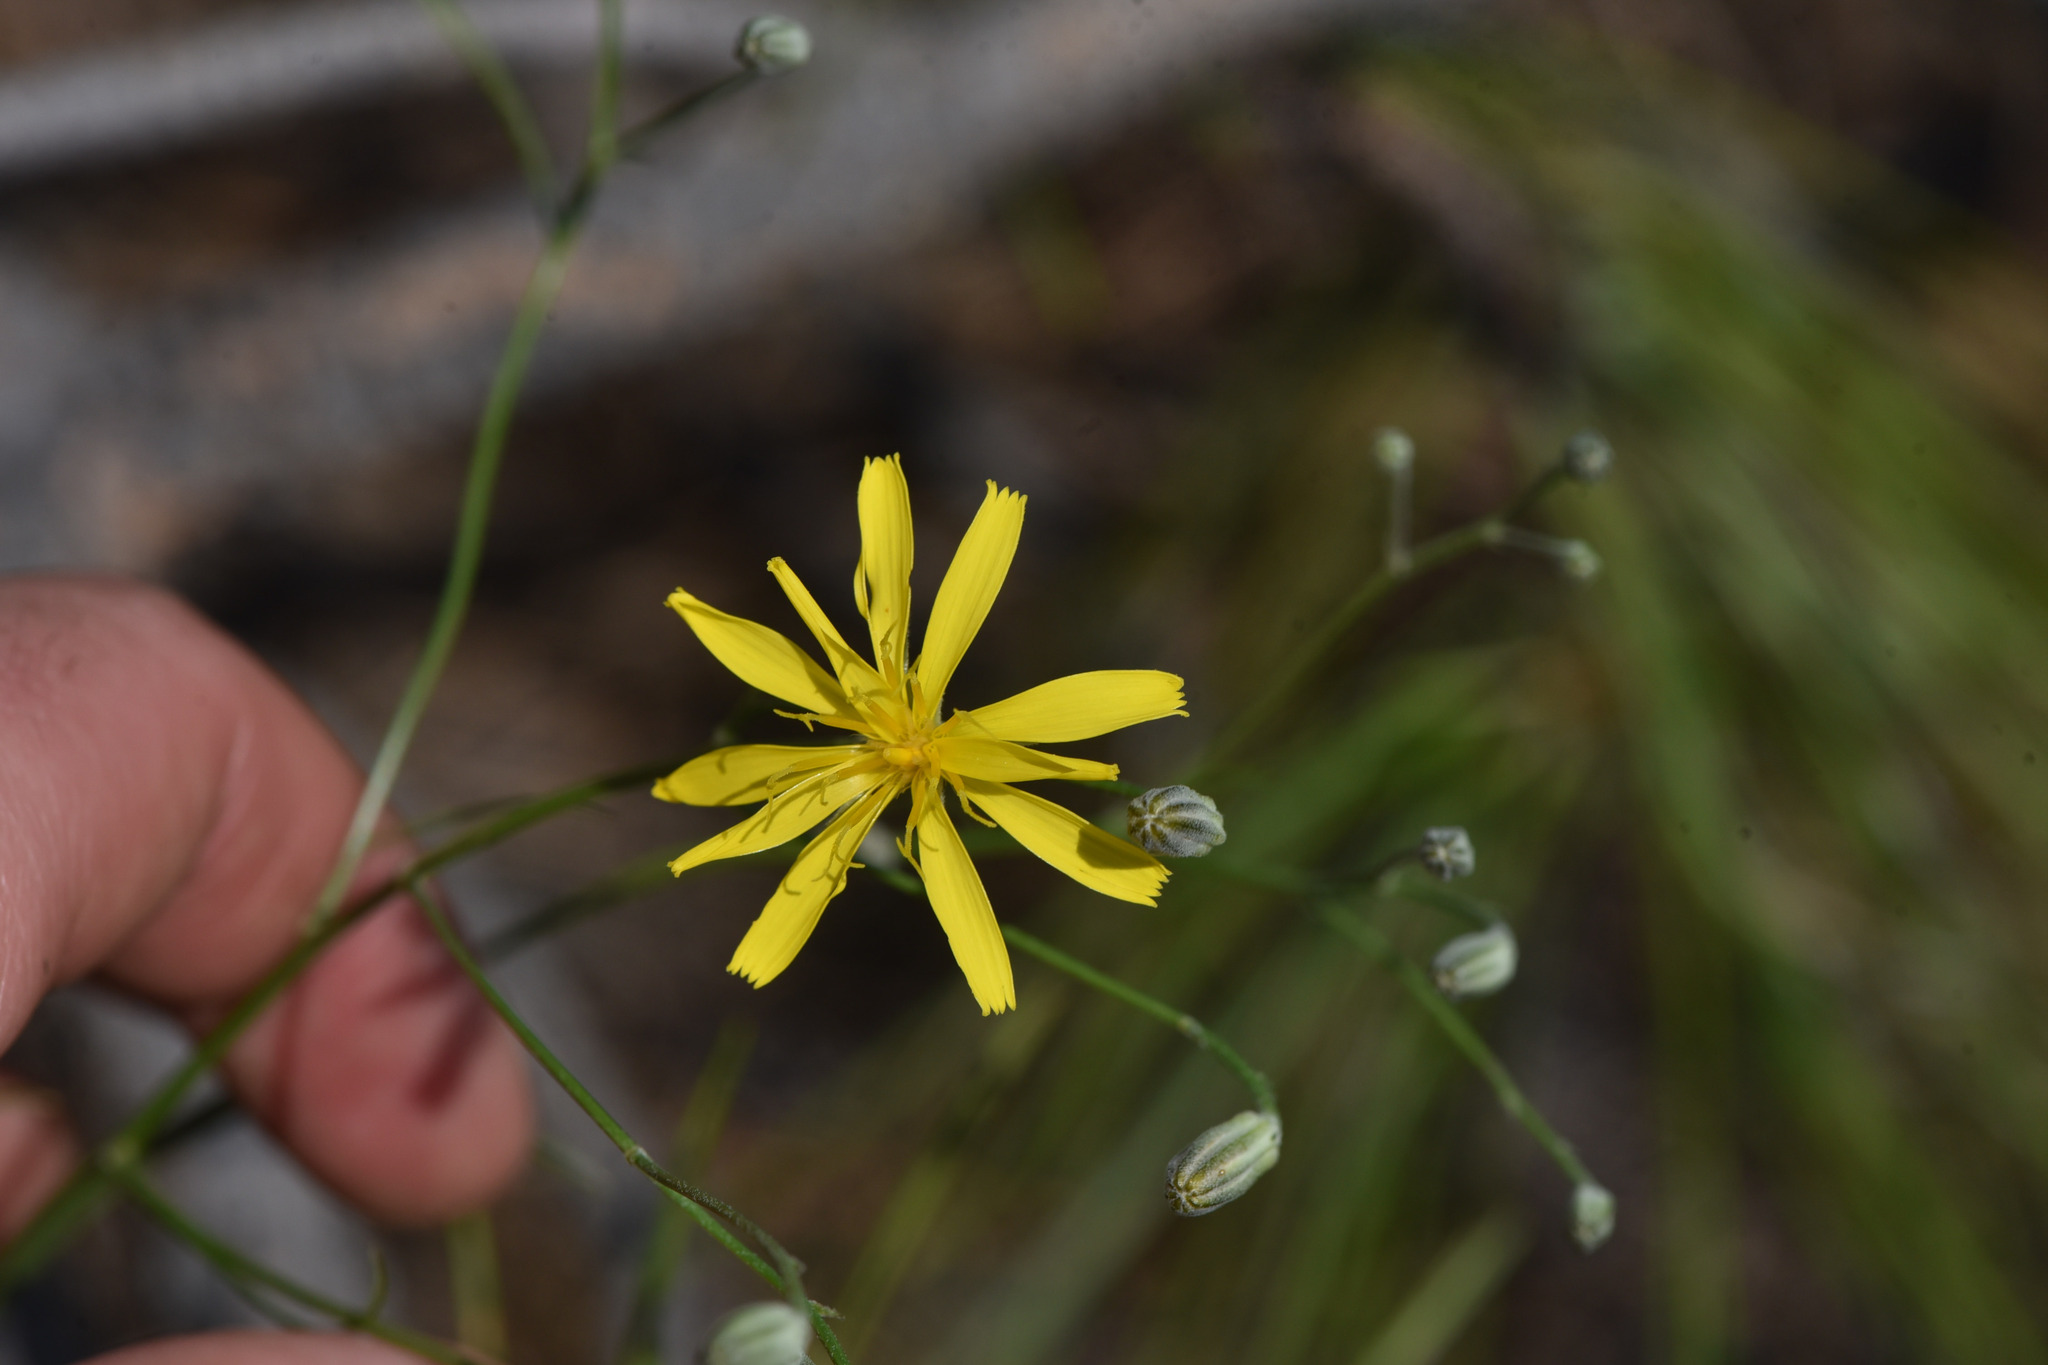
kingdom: Plantae
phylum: Tracheophyta
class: Magnoliopsida
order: Asterales
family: Asteraceae
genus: Crepis
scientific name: Crepis atribarba
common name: Dark hawk's-beard
